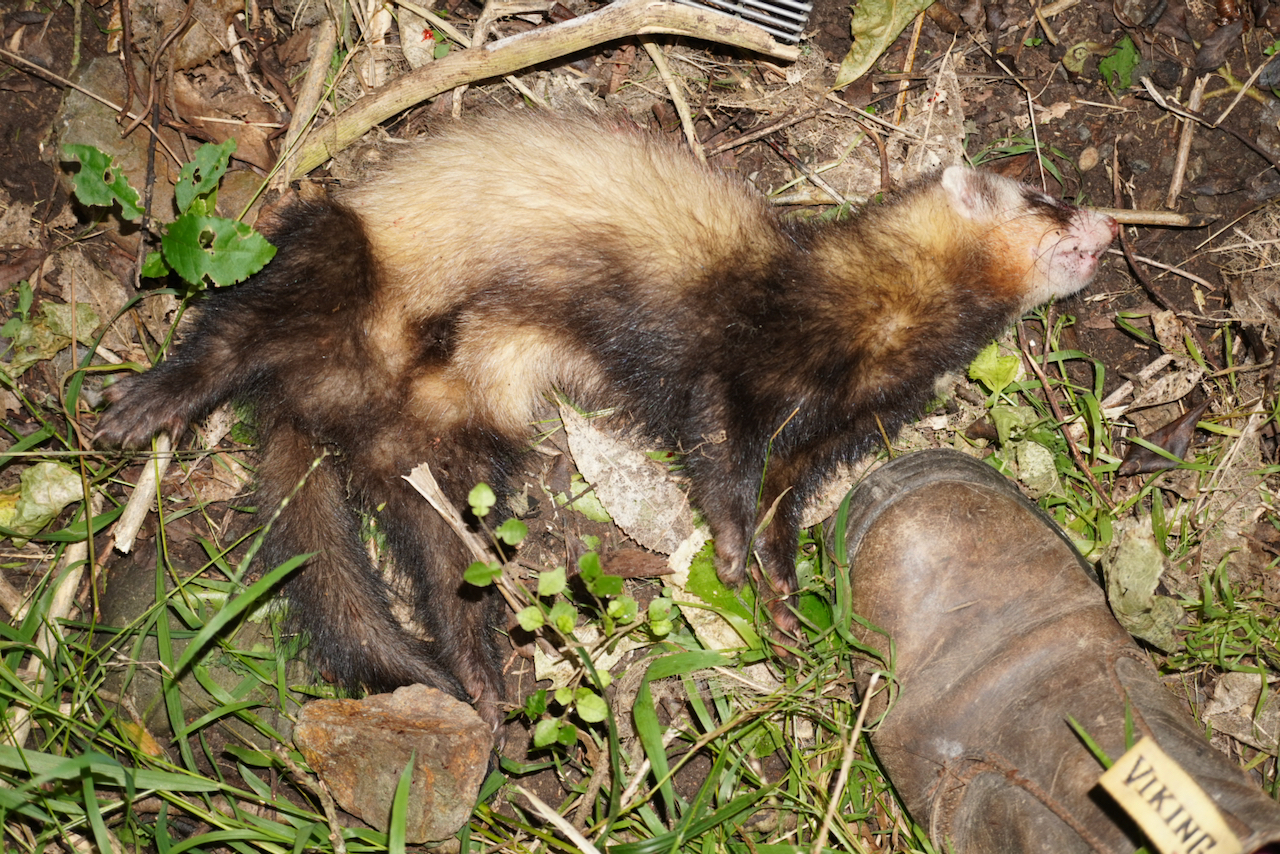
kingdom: Animalia
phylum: Chordata
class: Mammalia
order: Carnivora
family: Mustelidae
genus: Mustela
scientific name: Mustela putorius
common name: European polecat
